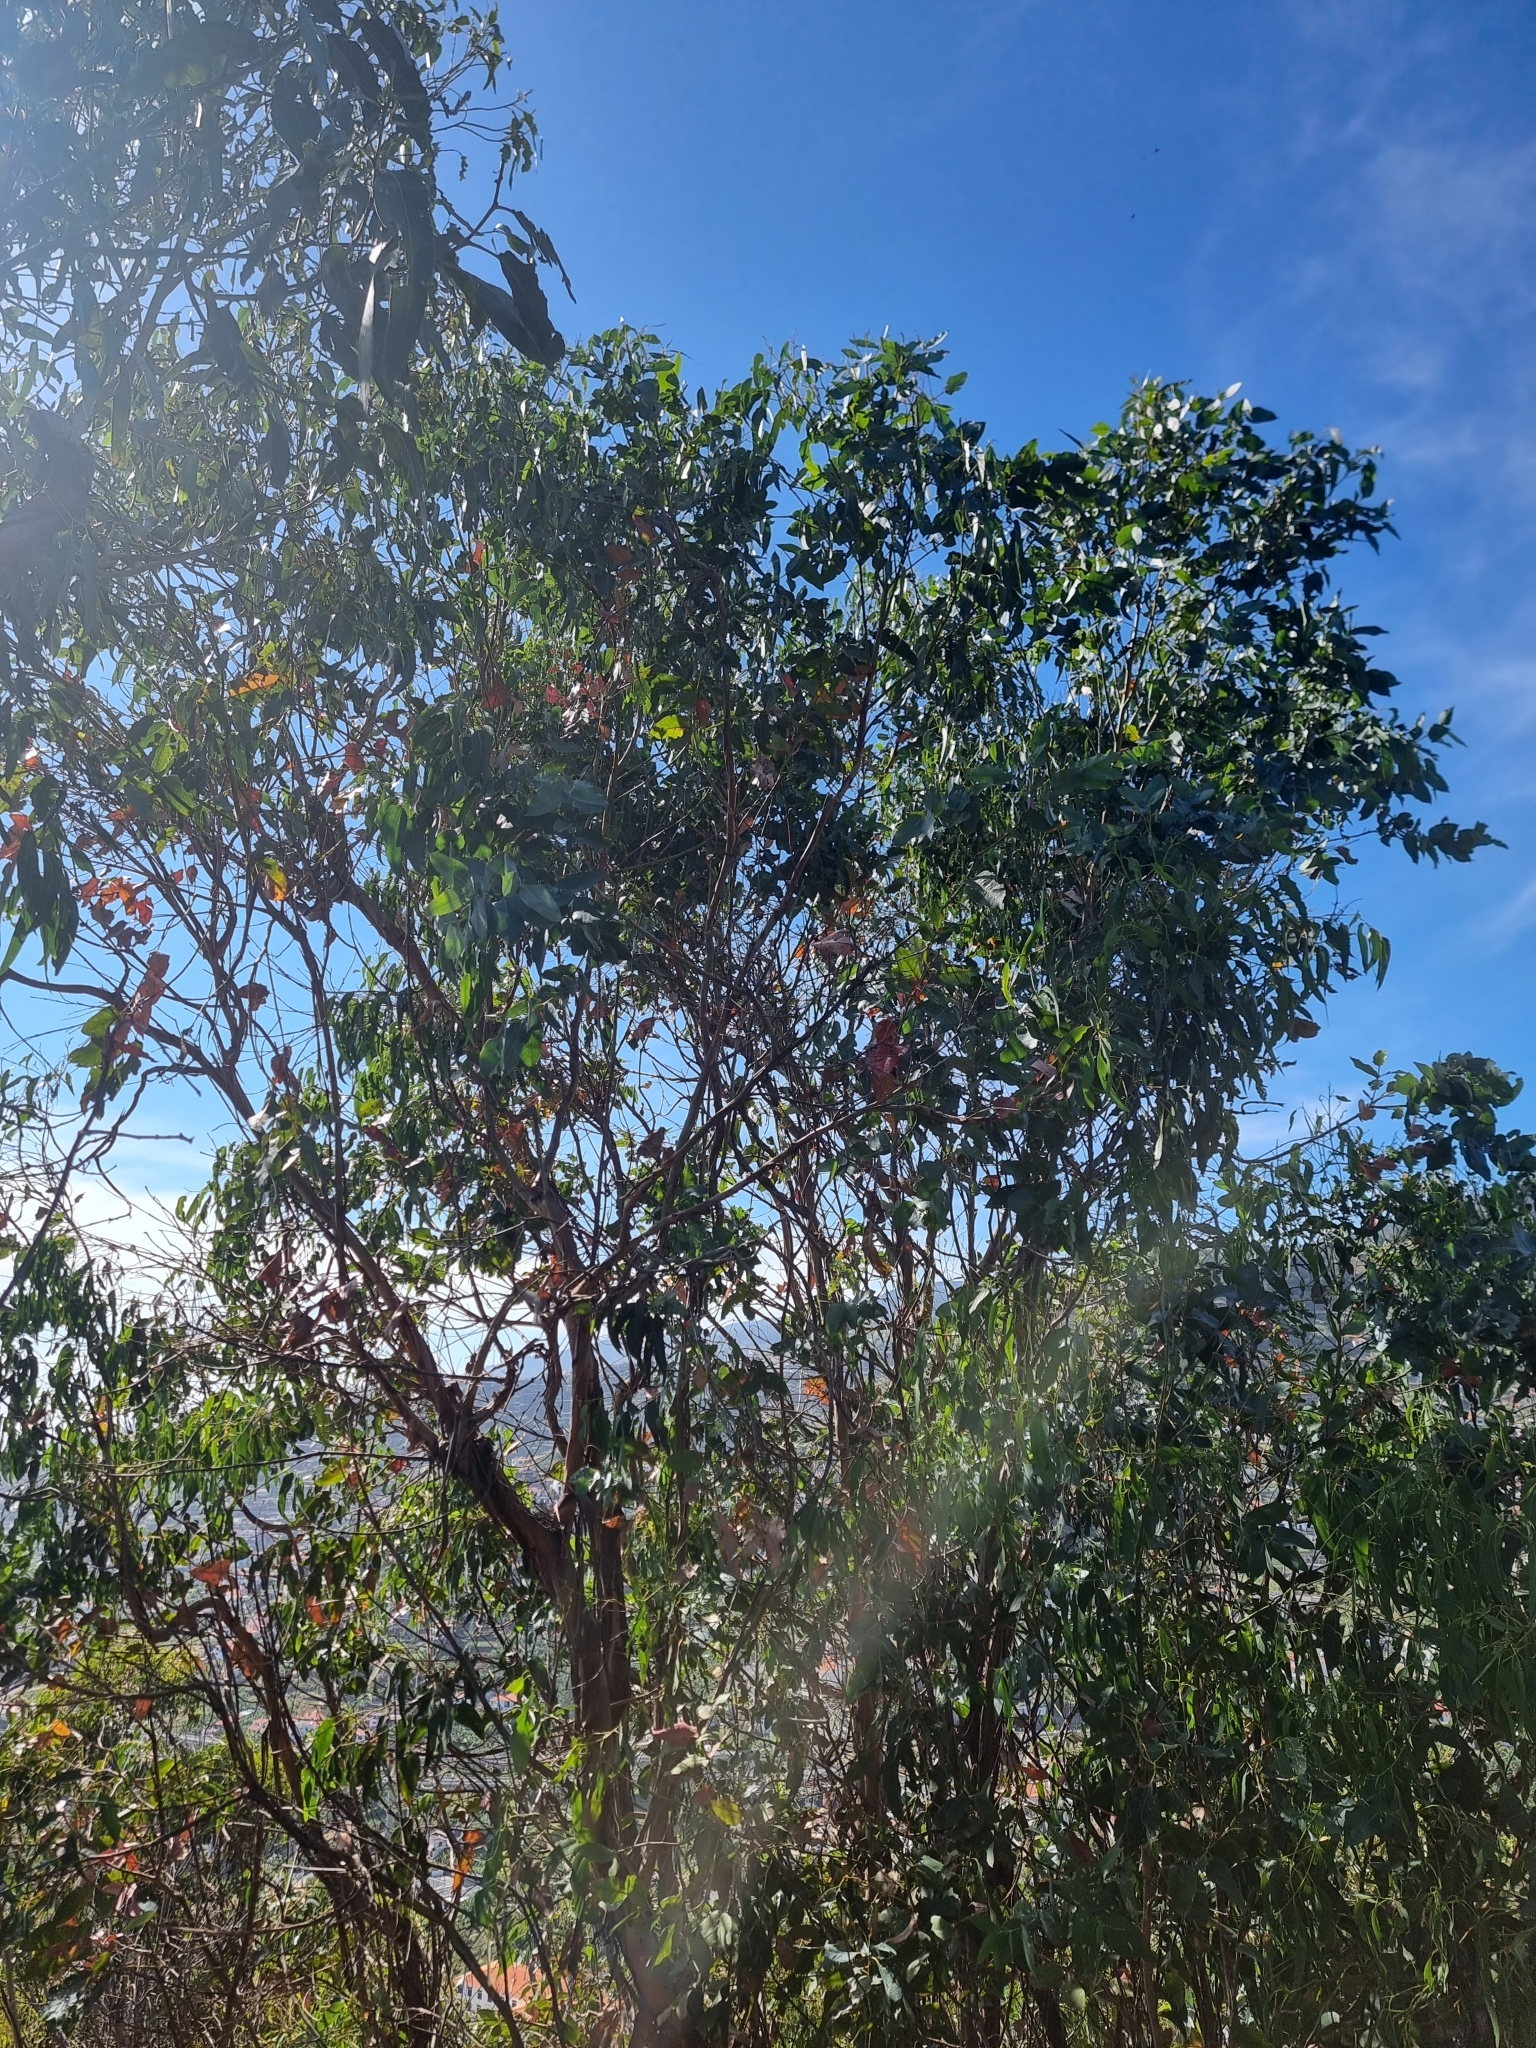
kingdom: Plantae
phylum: Tracheophyta
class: Magnoliopsida
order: Myrtales
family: Myrtaceae
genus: Eucalyptus
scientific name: Eucalyptus globulus
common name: Southern blue-gum
